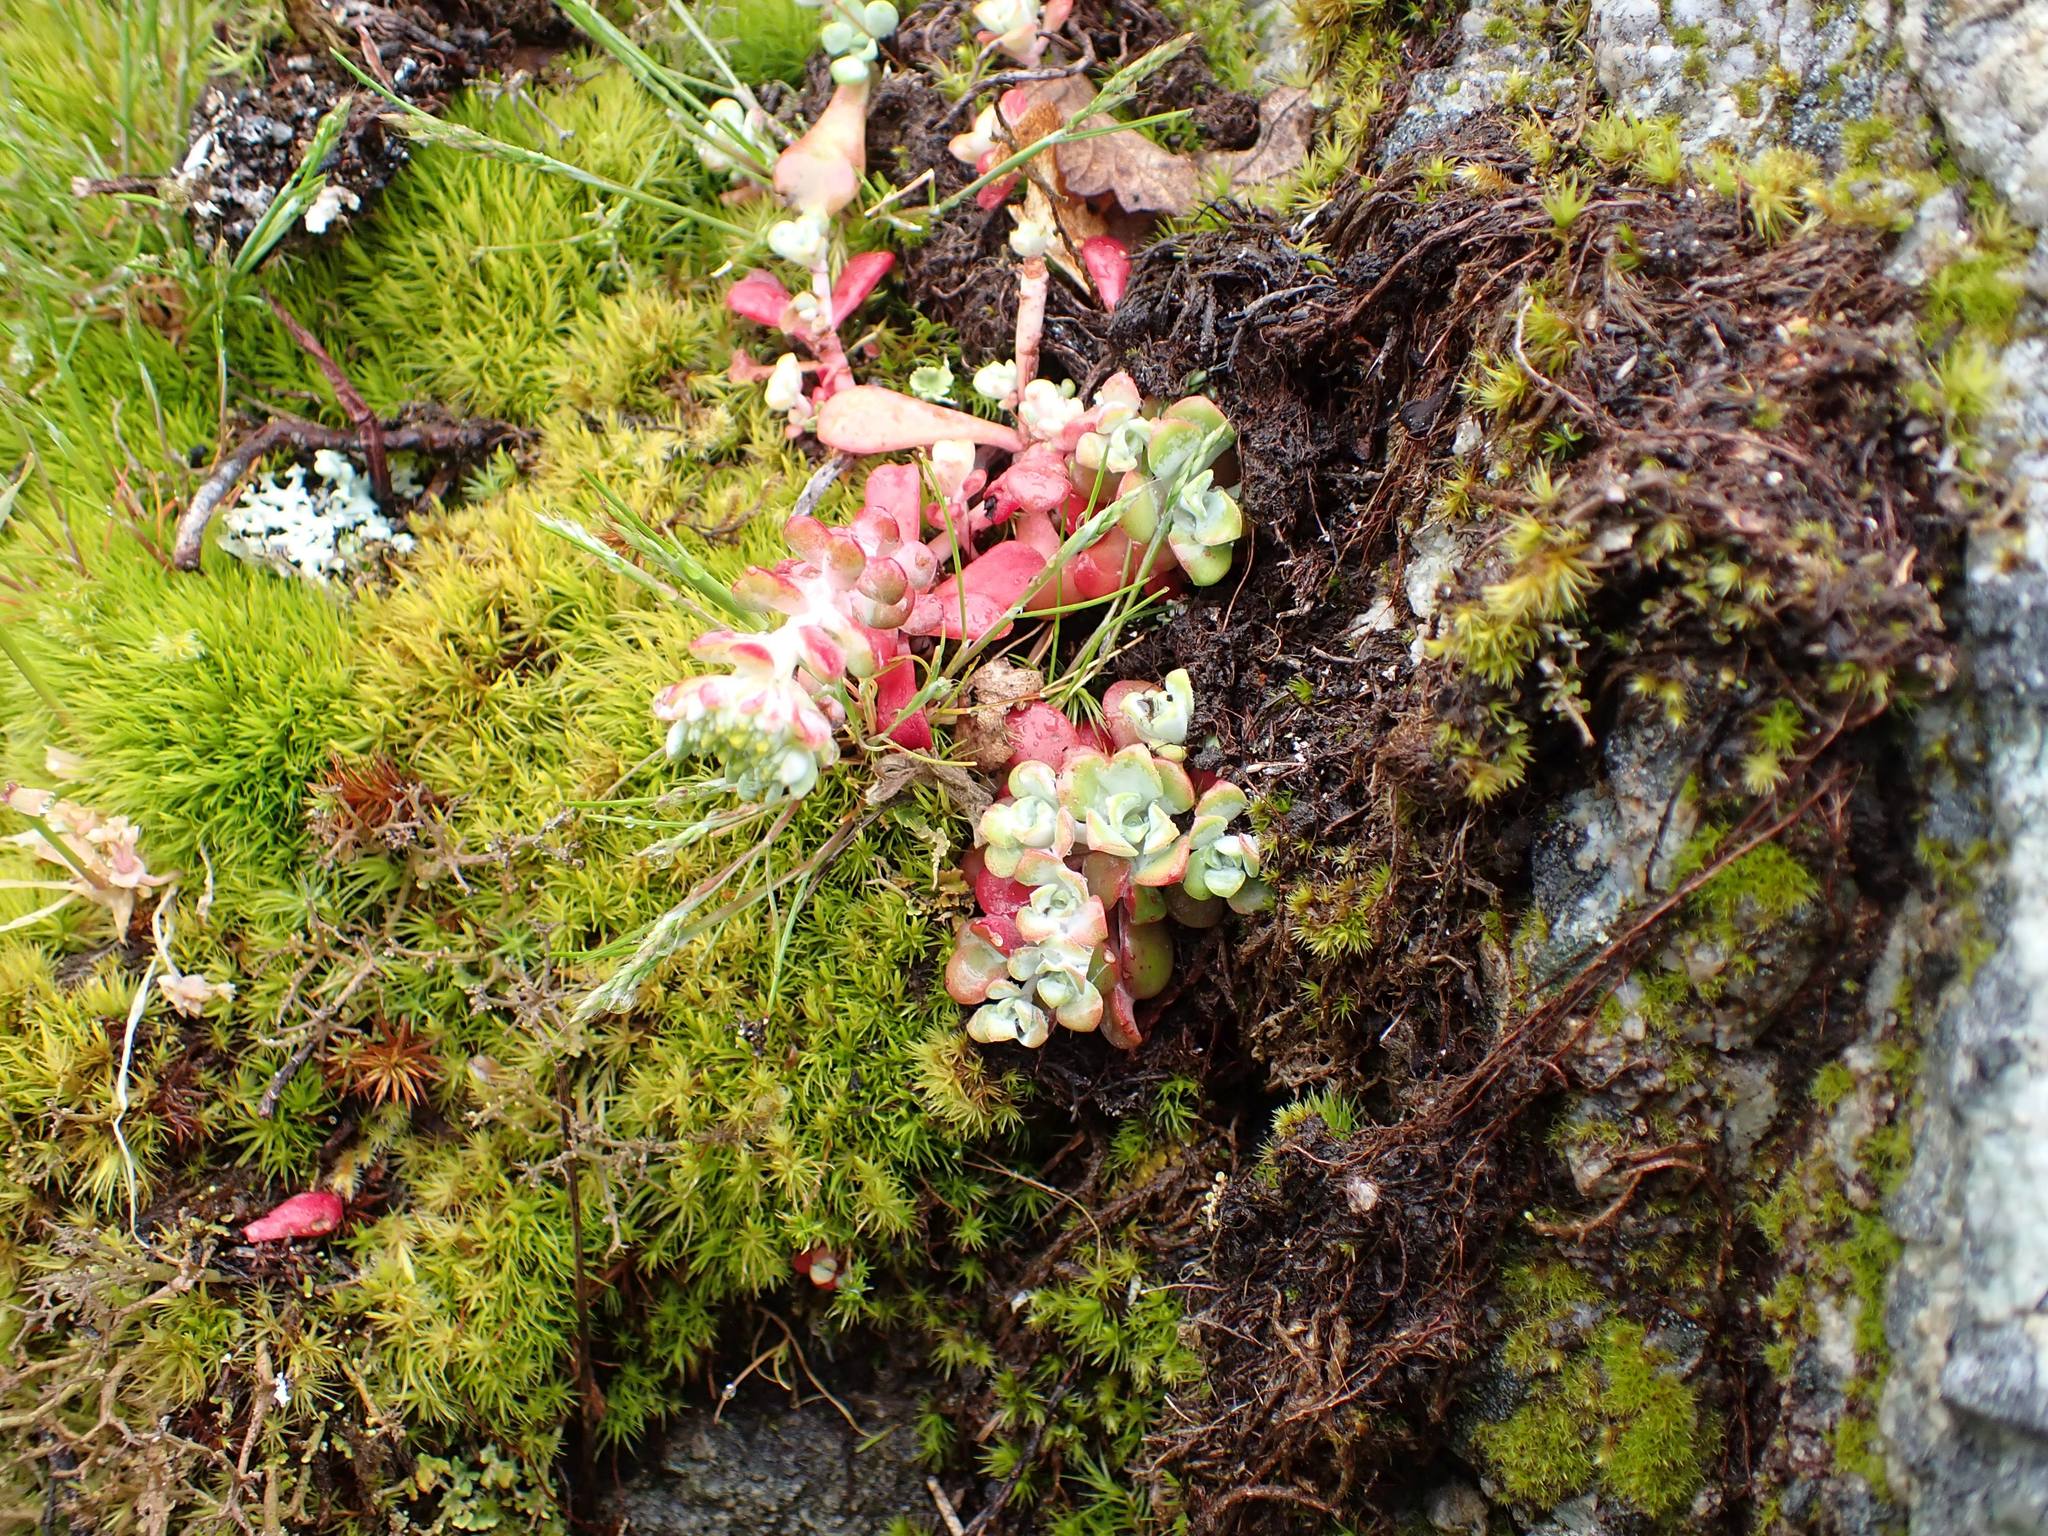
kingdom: Plantae
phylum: Tracheophyta
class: Magnoliopsida
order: Saxifragales
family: Crassulaceae
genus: Sedum
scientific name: Sedum spathulifolium
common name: Colorado stonecrop
